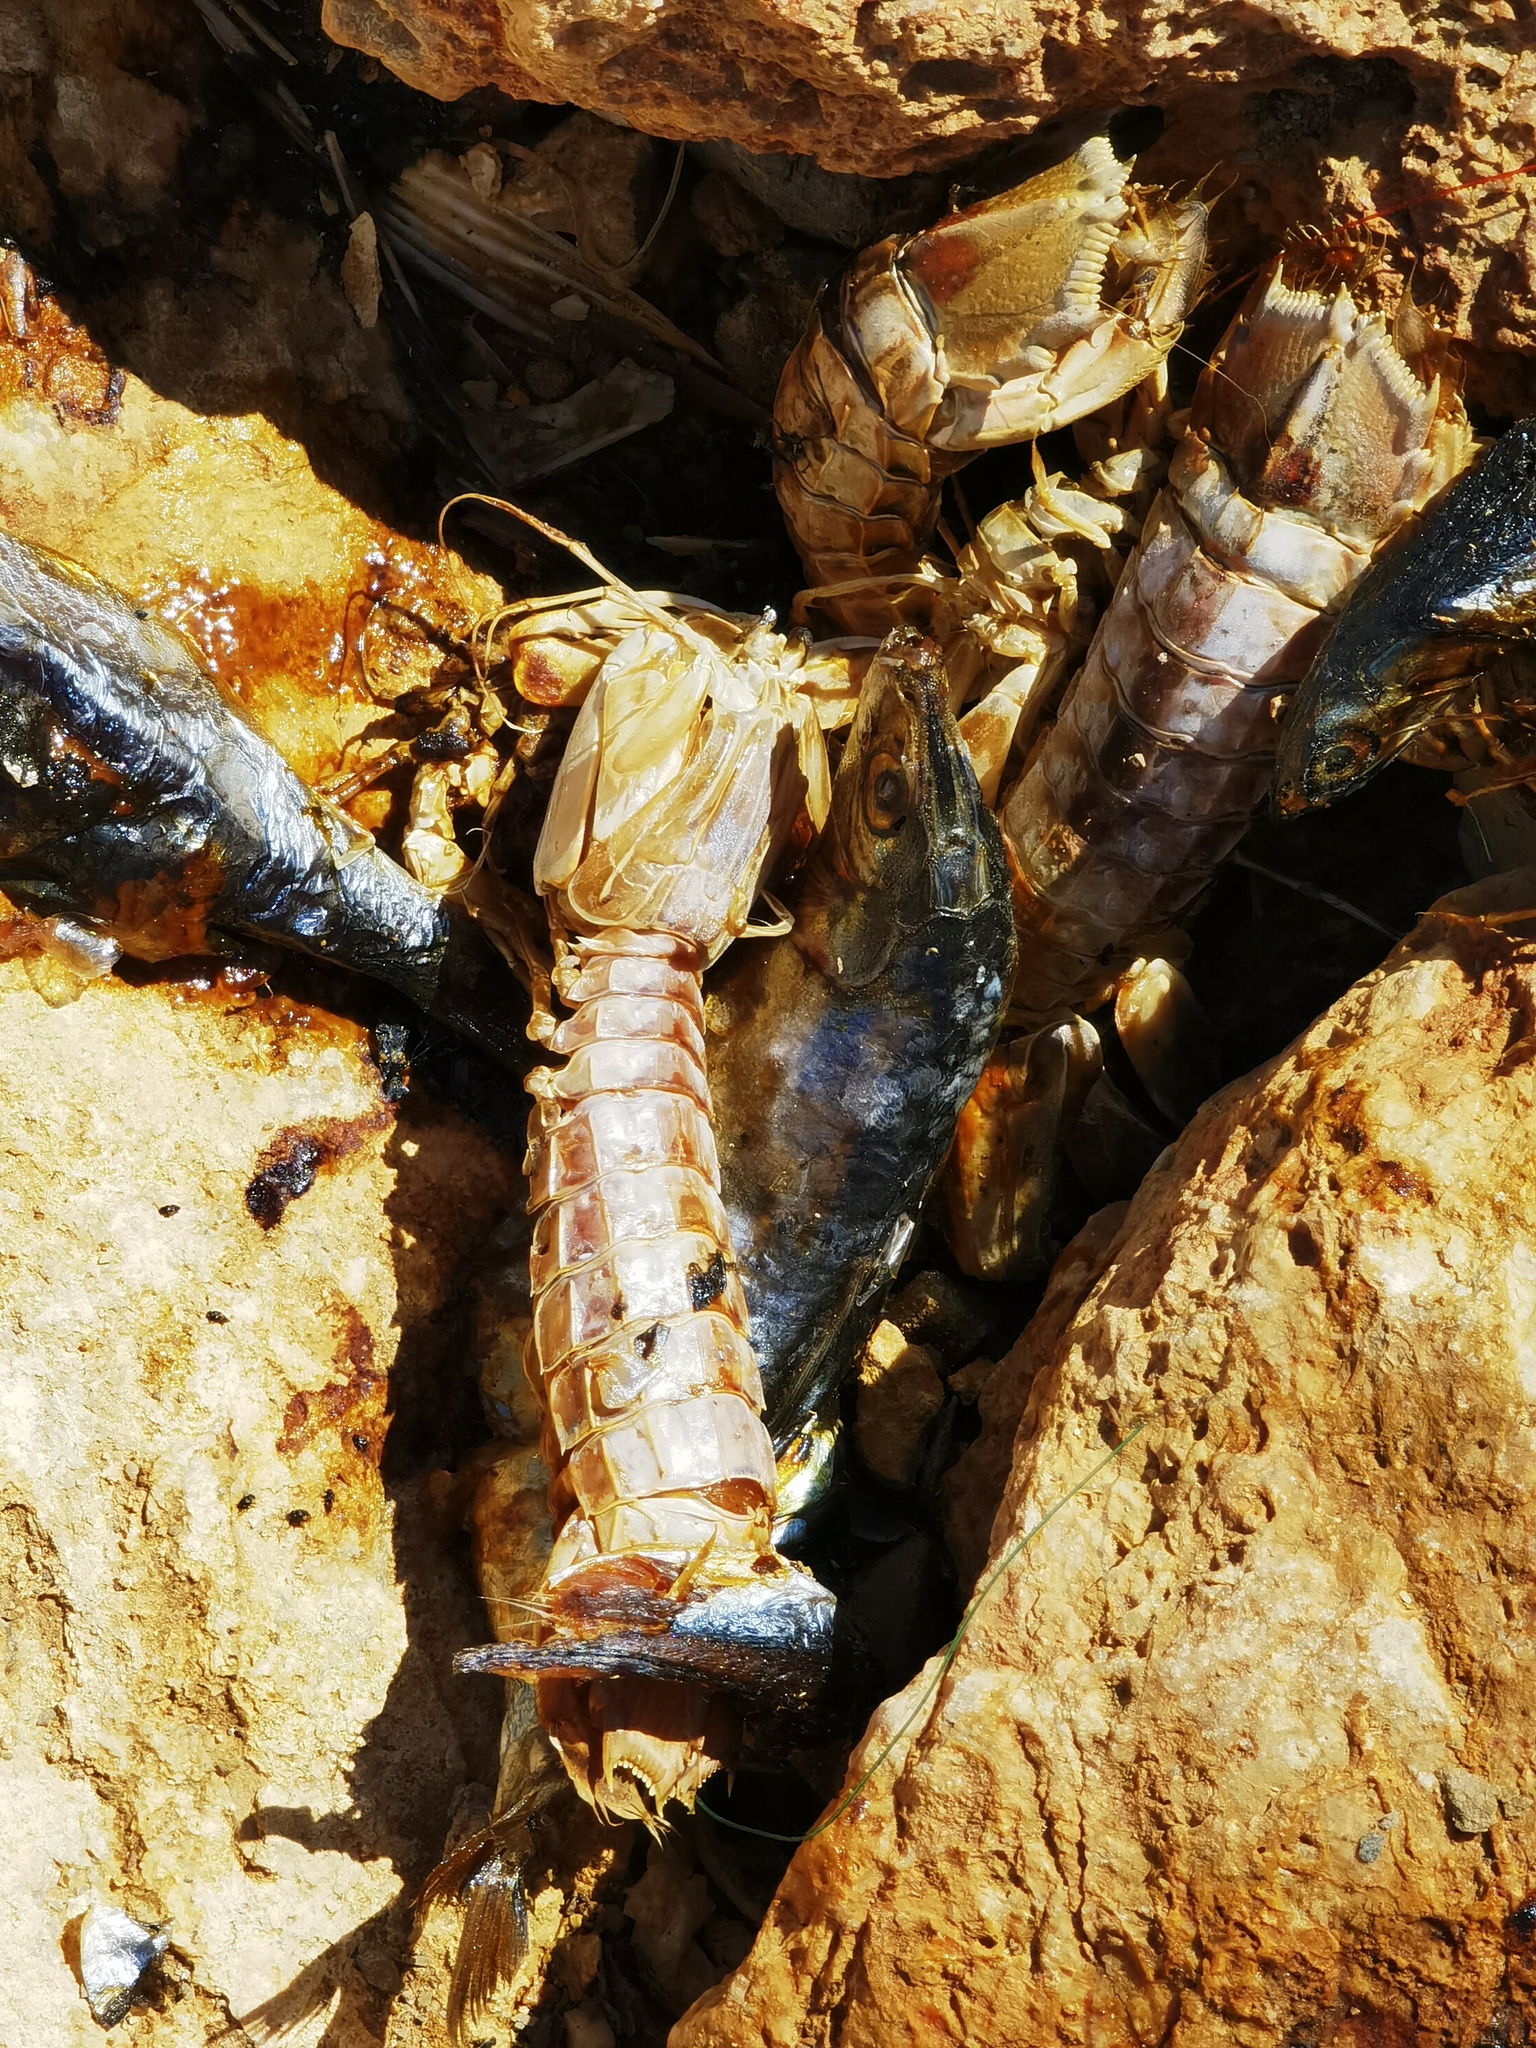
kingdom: Animalia
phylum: Arthropoda
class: Malacostraca
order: Stomatopoda
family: Squillidae
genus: Squilla
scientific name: Squilla mantis
